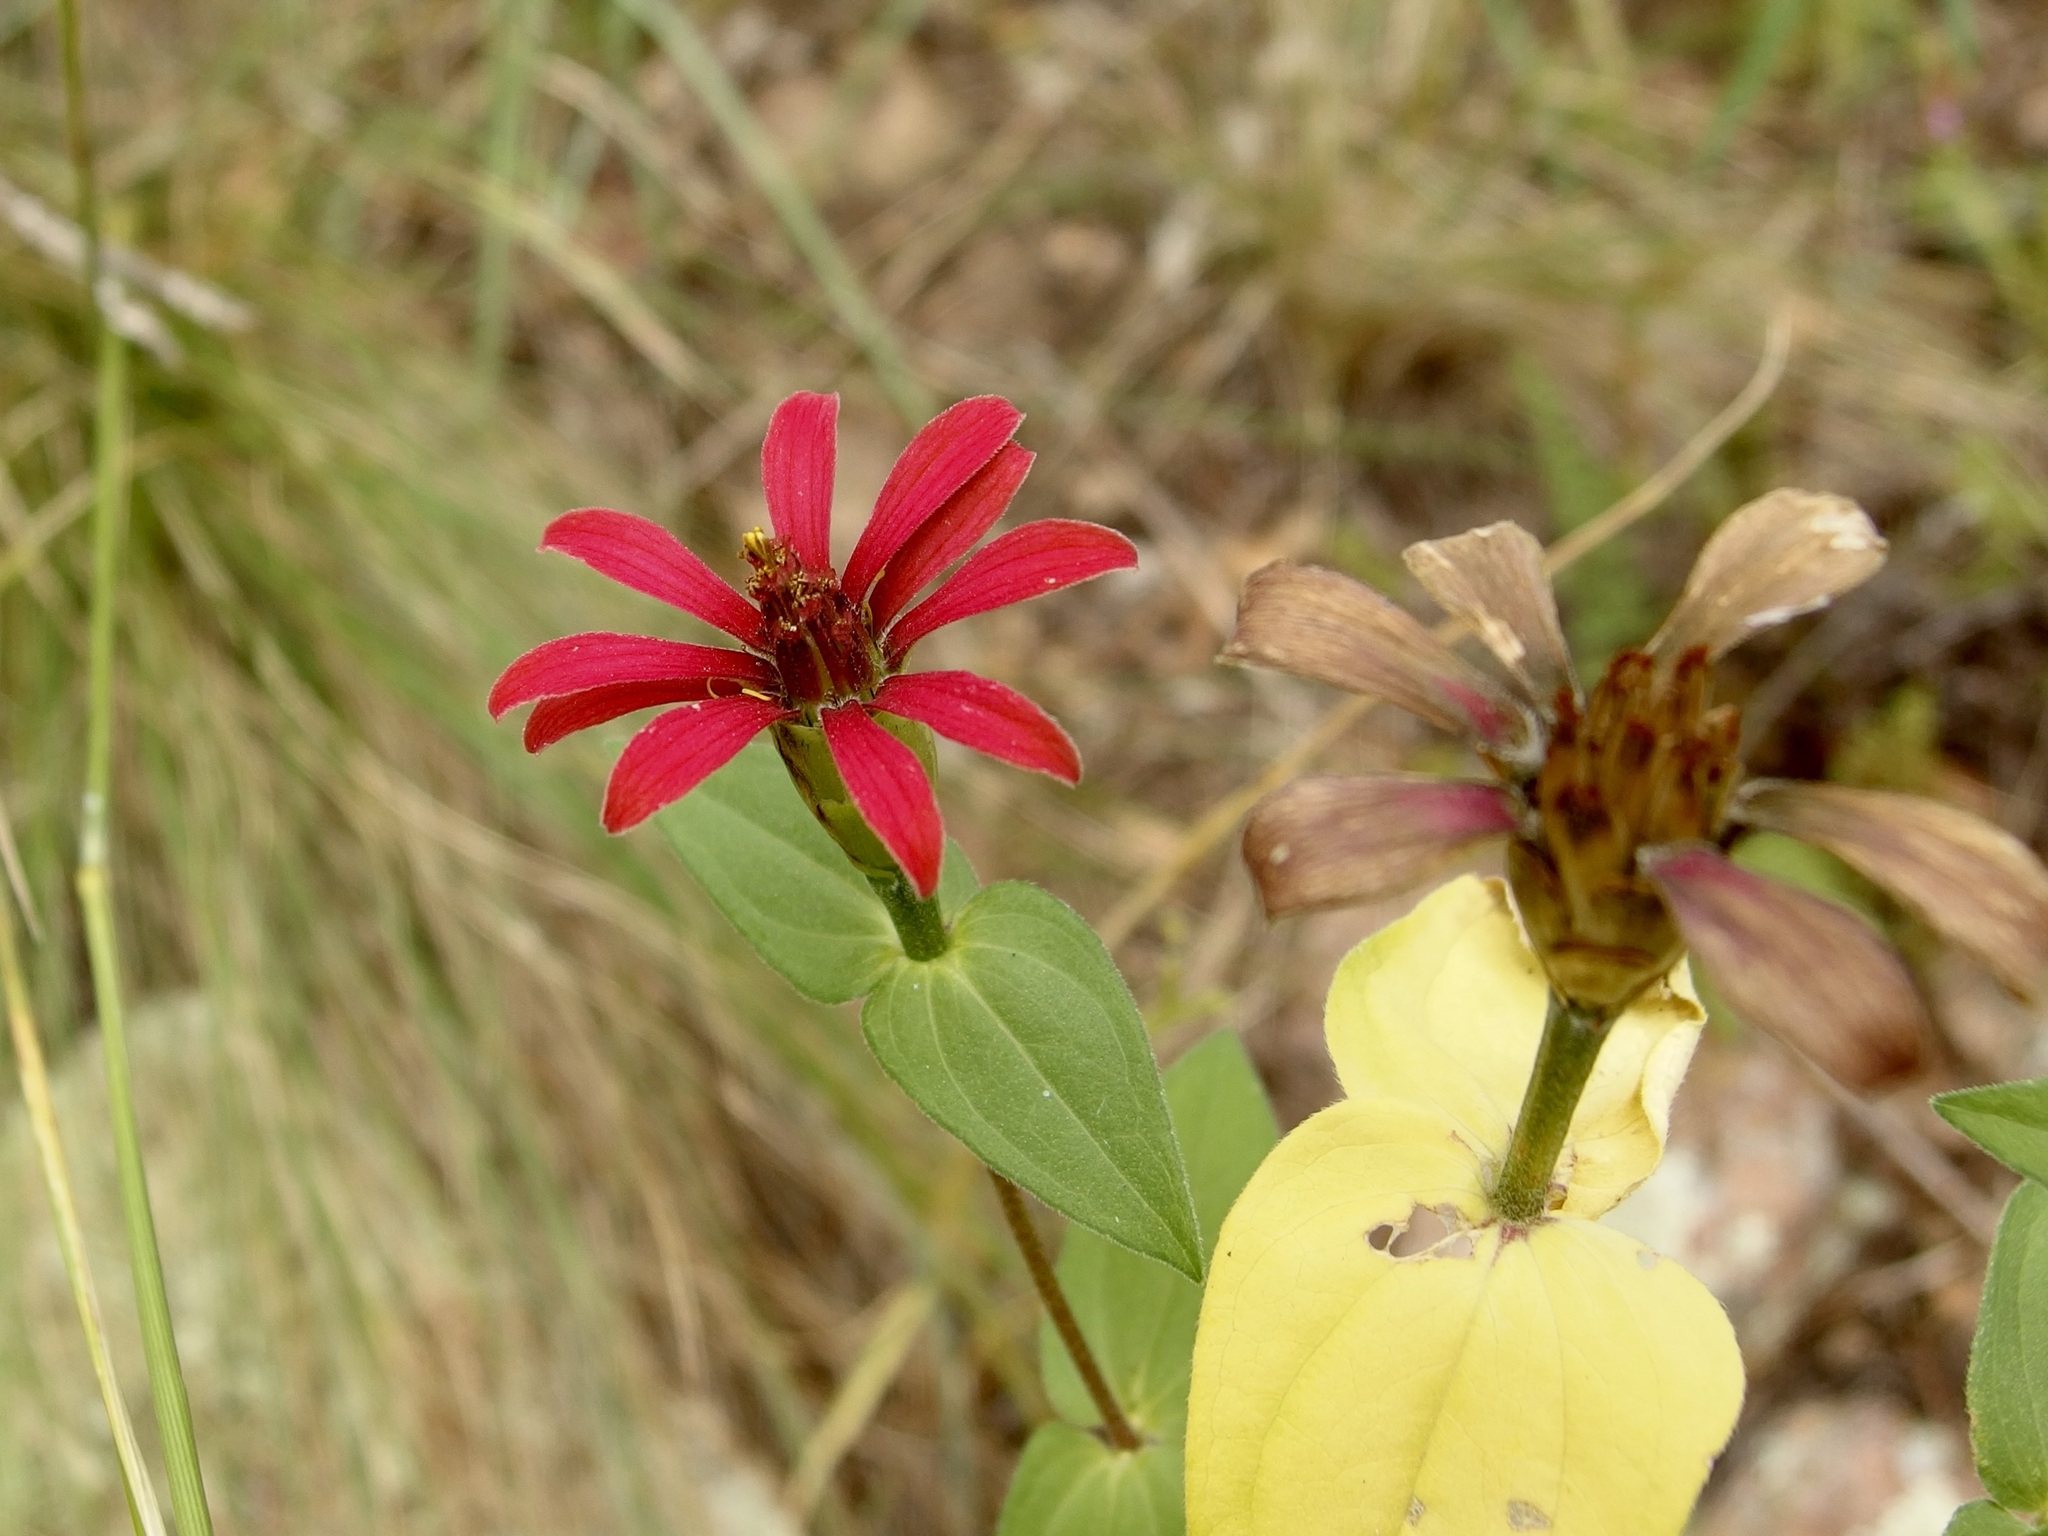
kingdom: Plantae
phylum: Tracheophyta
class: Magnoliopsida
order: Asterales
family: Asteraceae
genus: Zinnia
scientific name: Zinnia peruviana
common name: Peruvian zinnia
